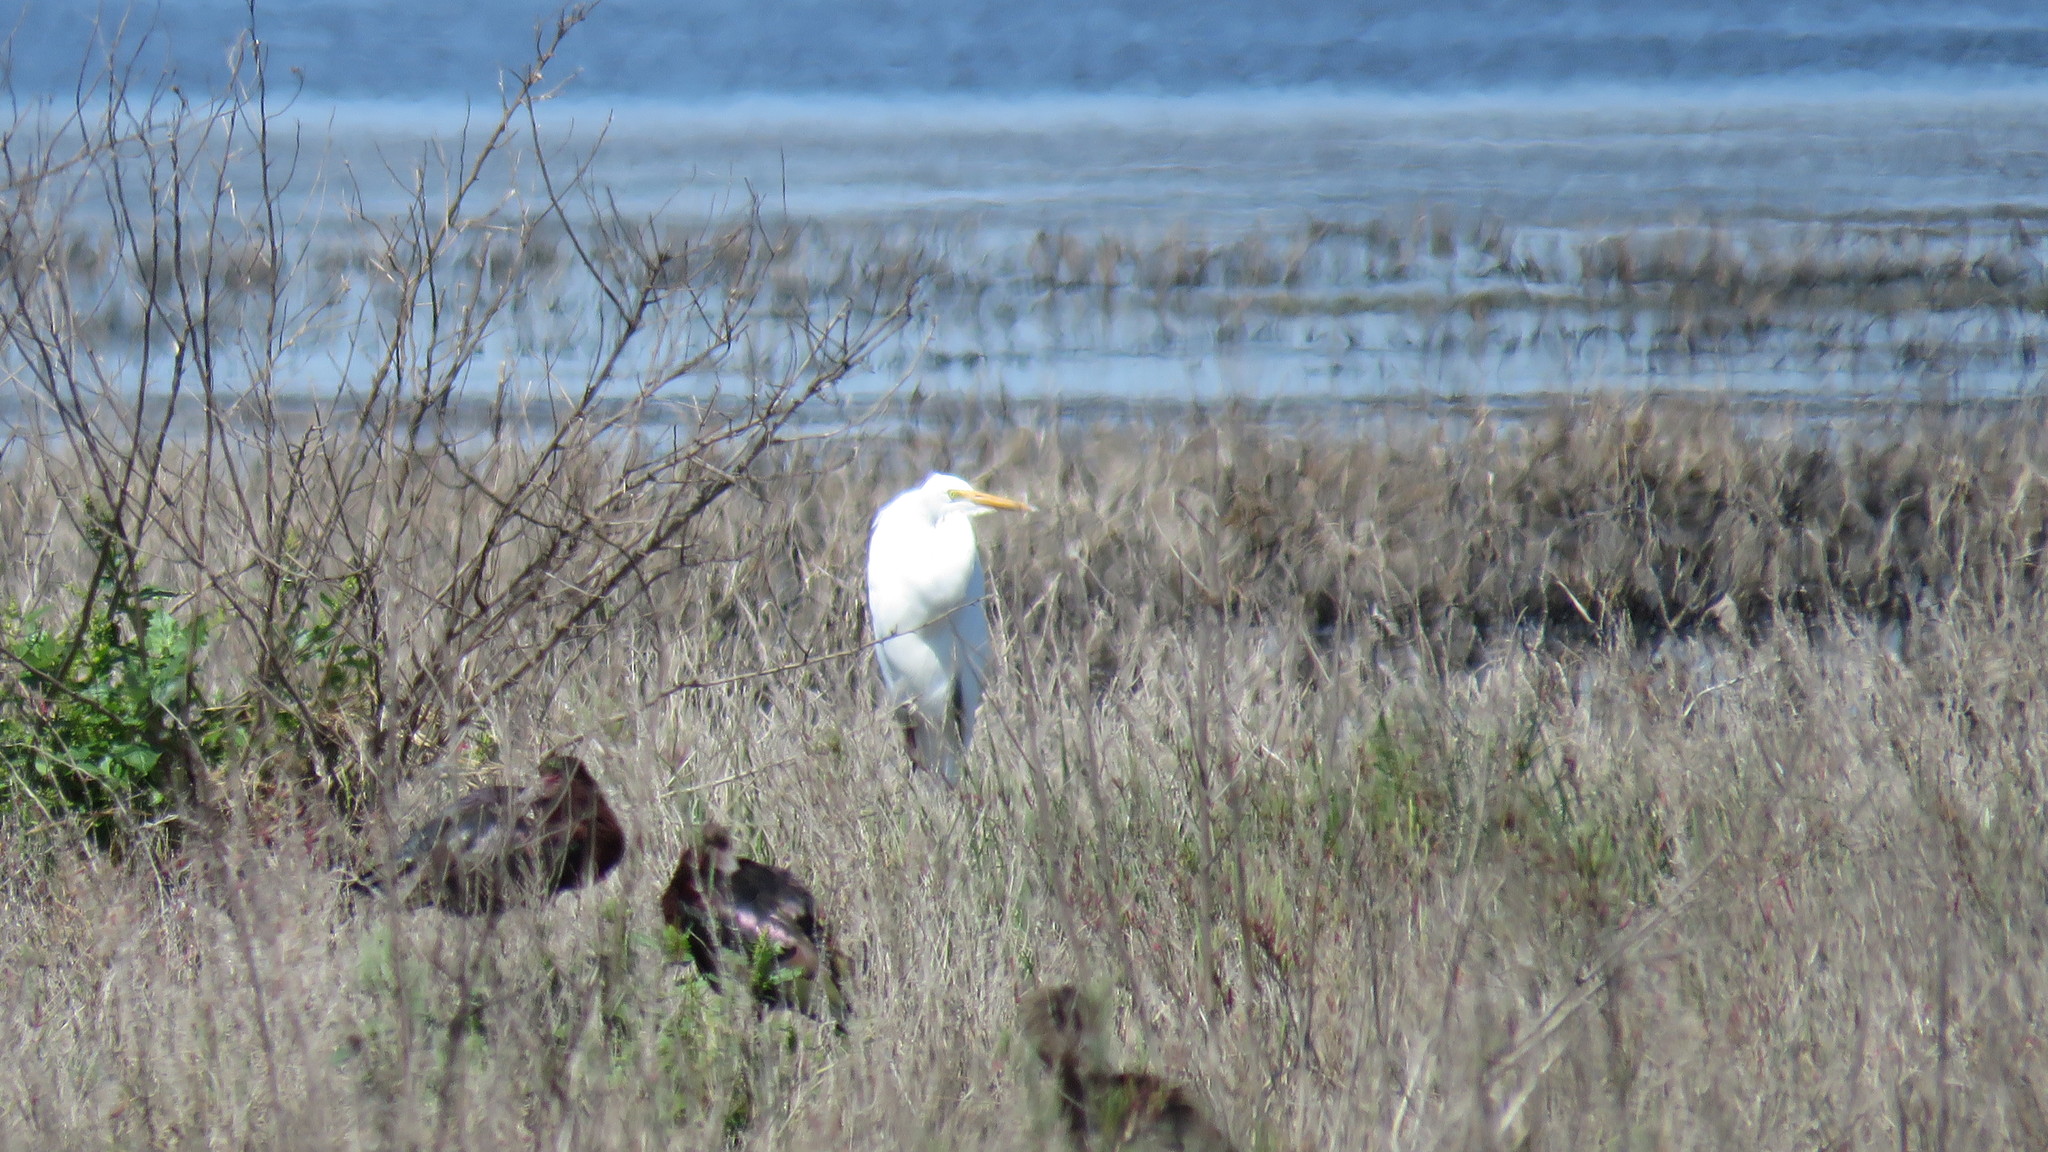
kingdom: Animalia
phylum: Chordata
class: Aves
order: Pelecaniformes
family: Ardeidae
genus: Ardea
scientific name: Ardea alba
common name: Great egret
